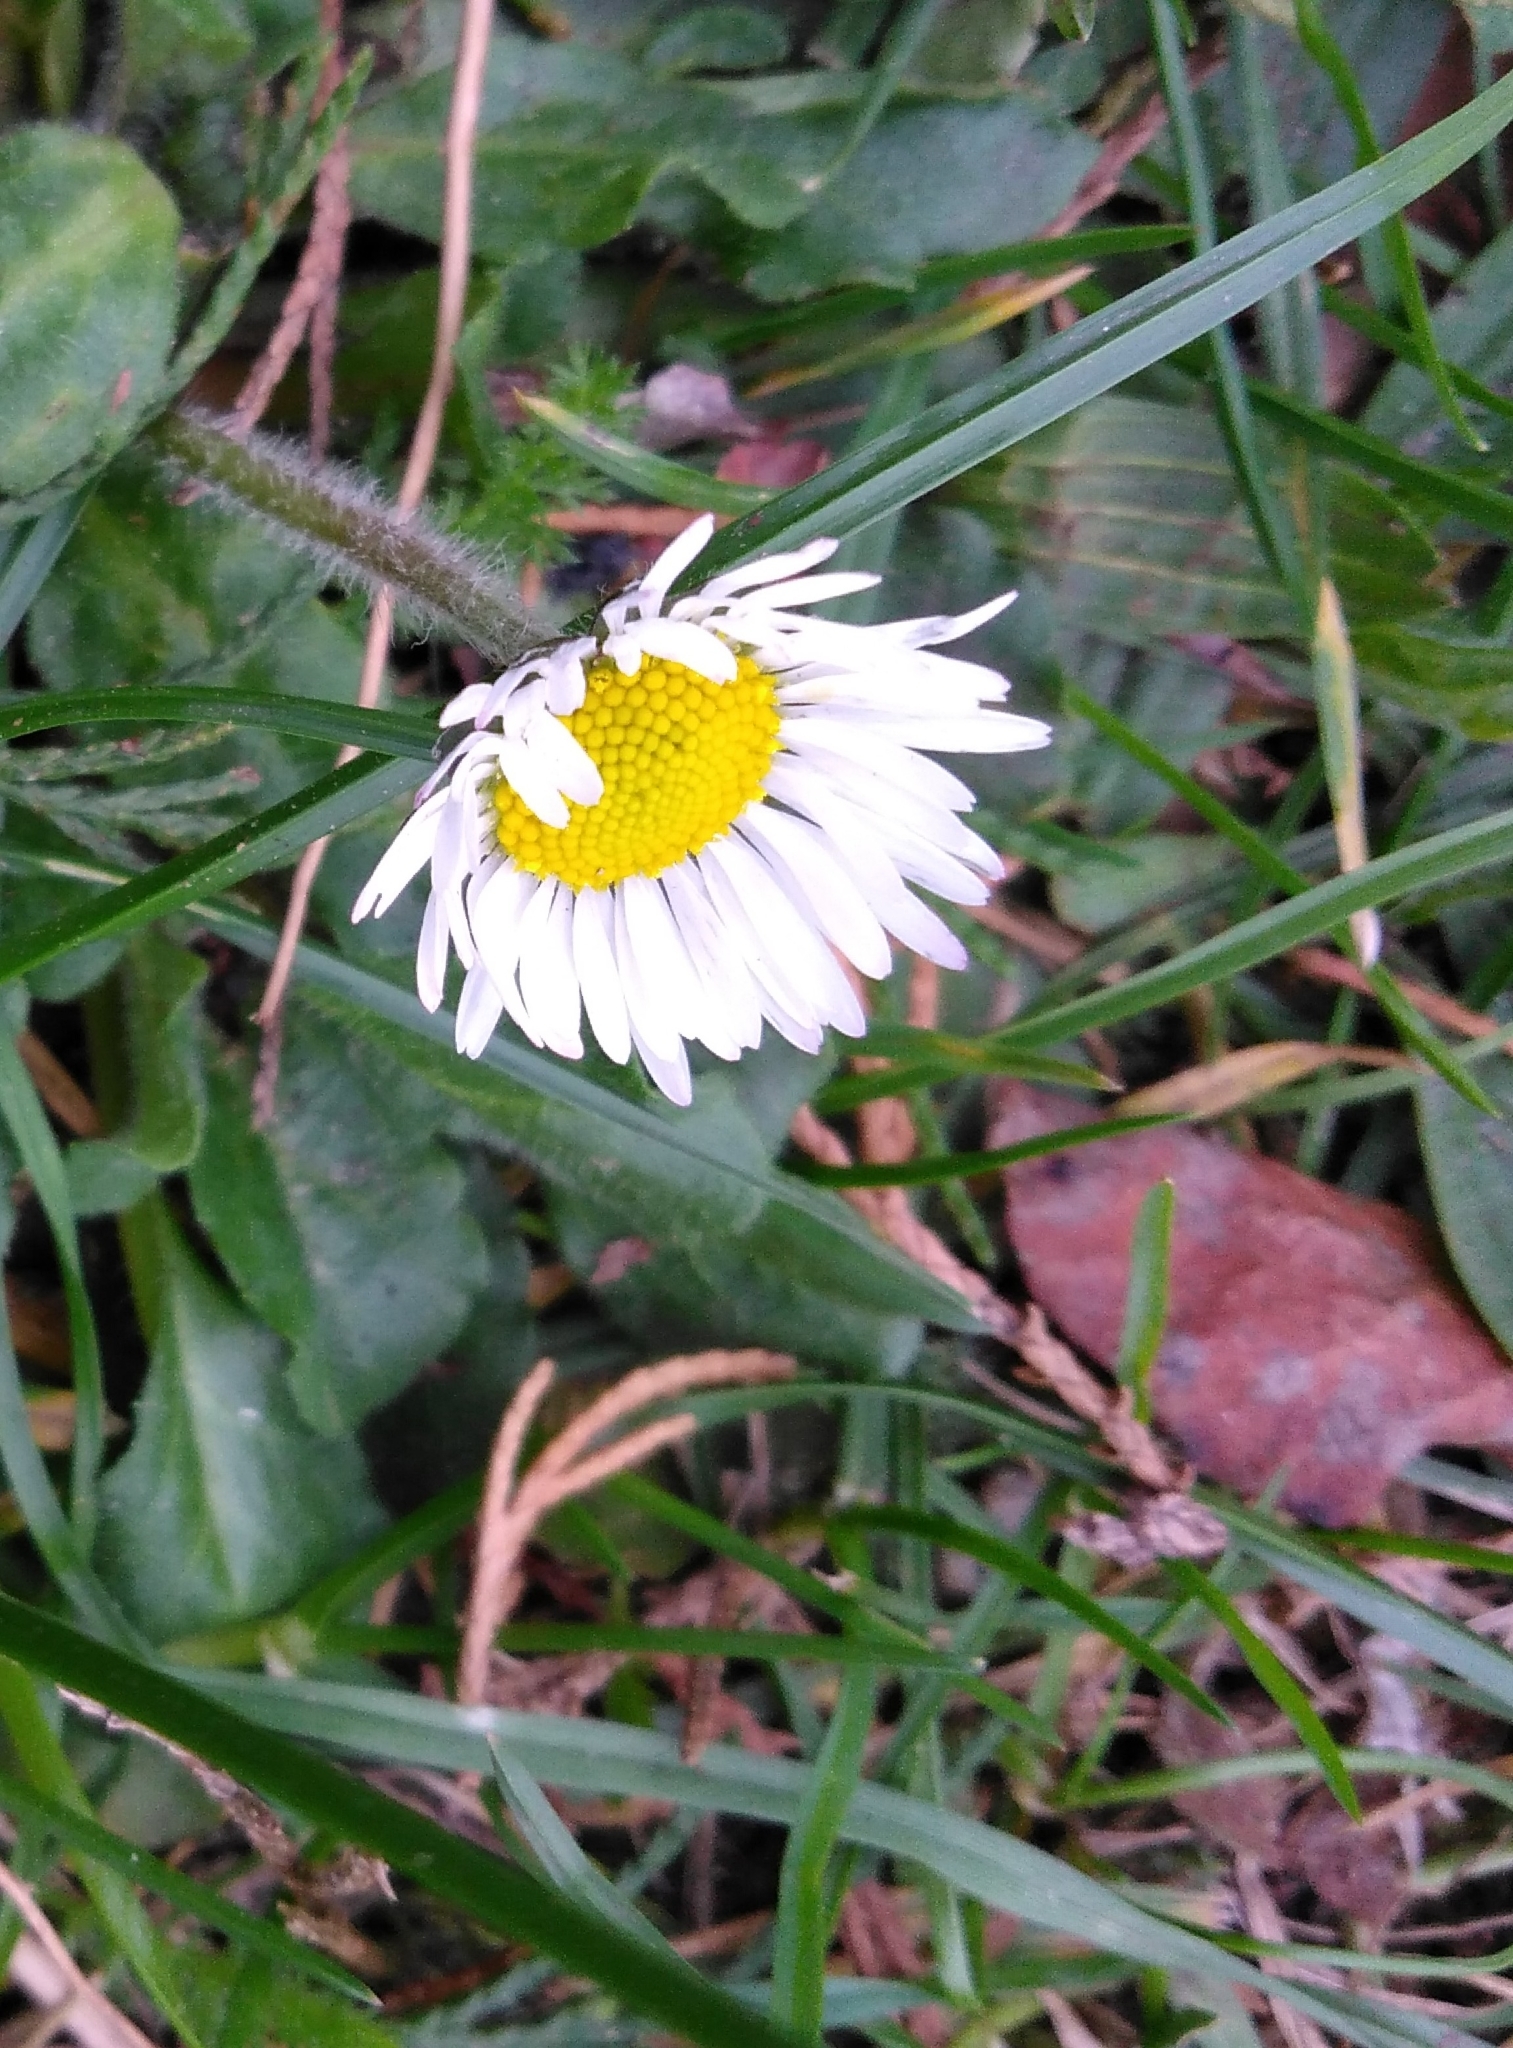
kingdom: Plantae
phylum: Tracheophyta
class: Magnoliopsida
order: Asterales
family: Asteraceae
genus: Bellis
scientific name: Bellis perennis
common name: Lawndaisy
